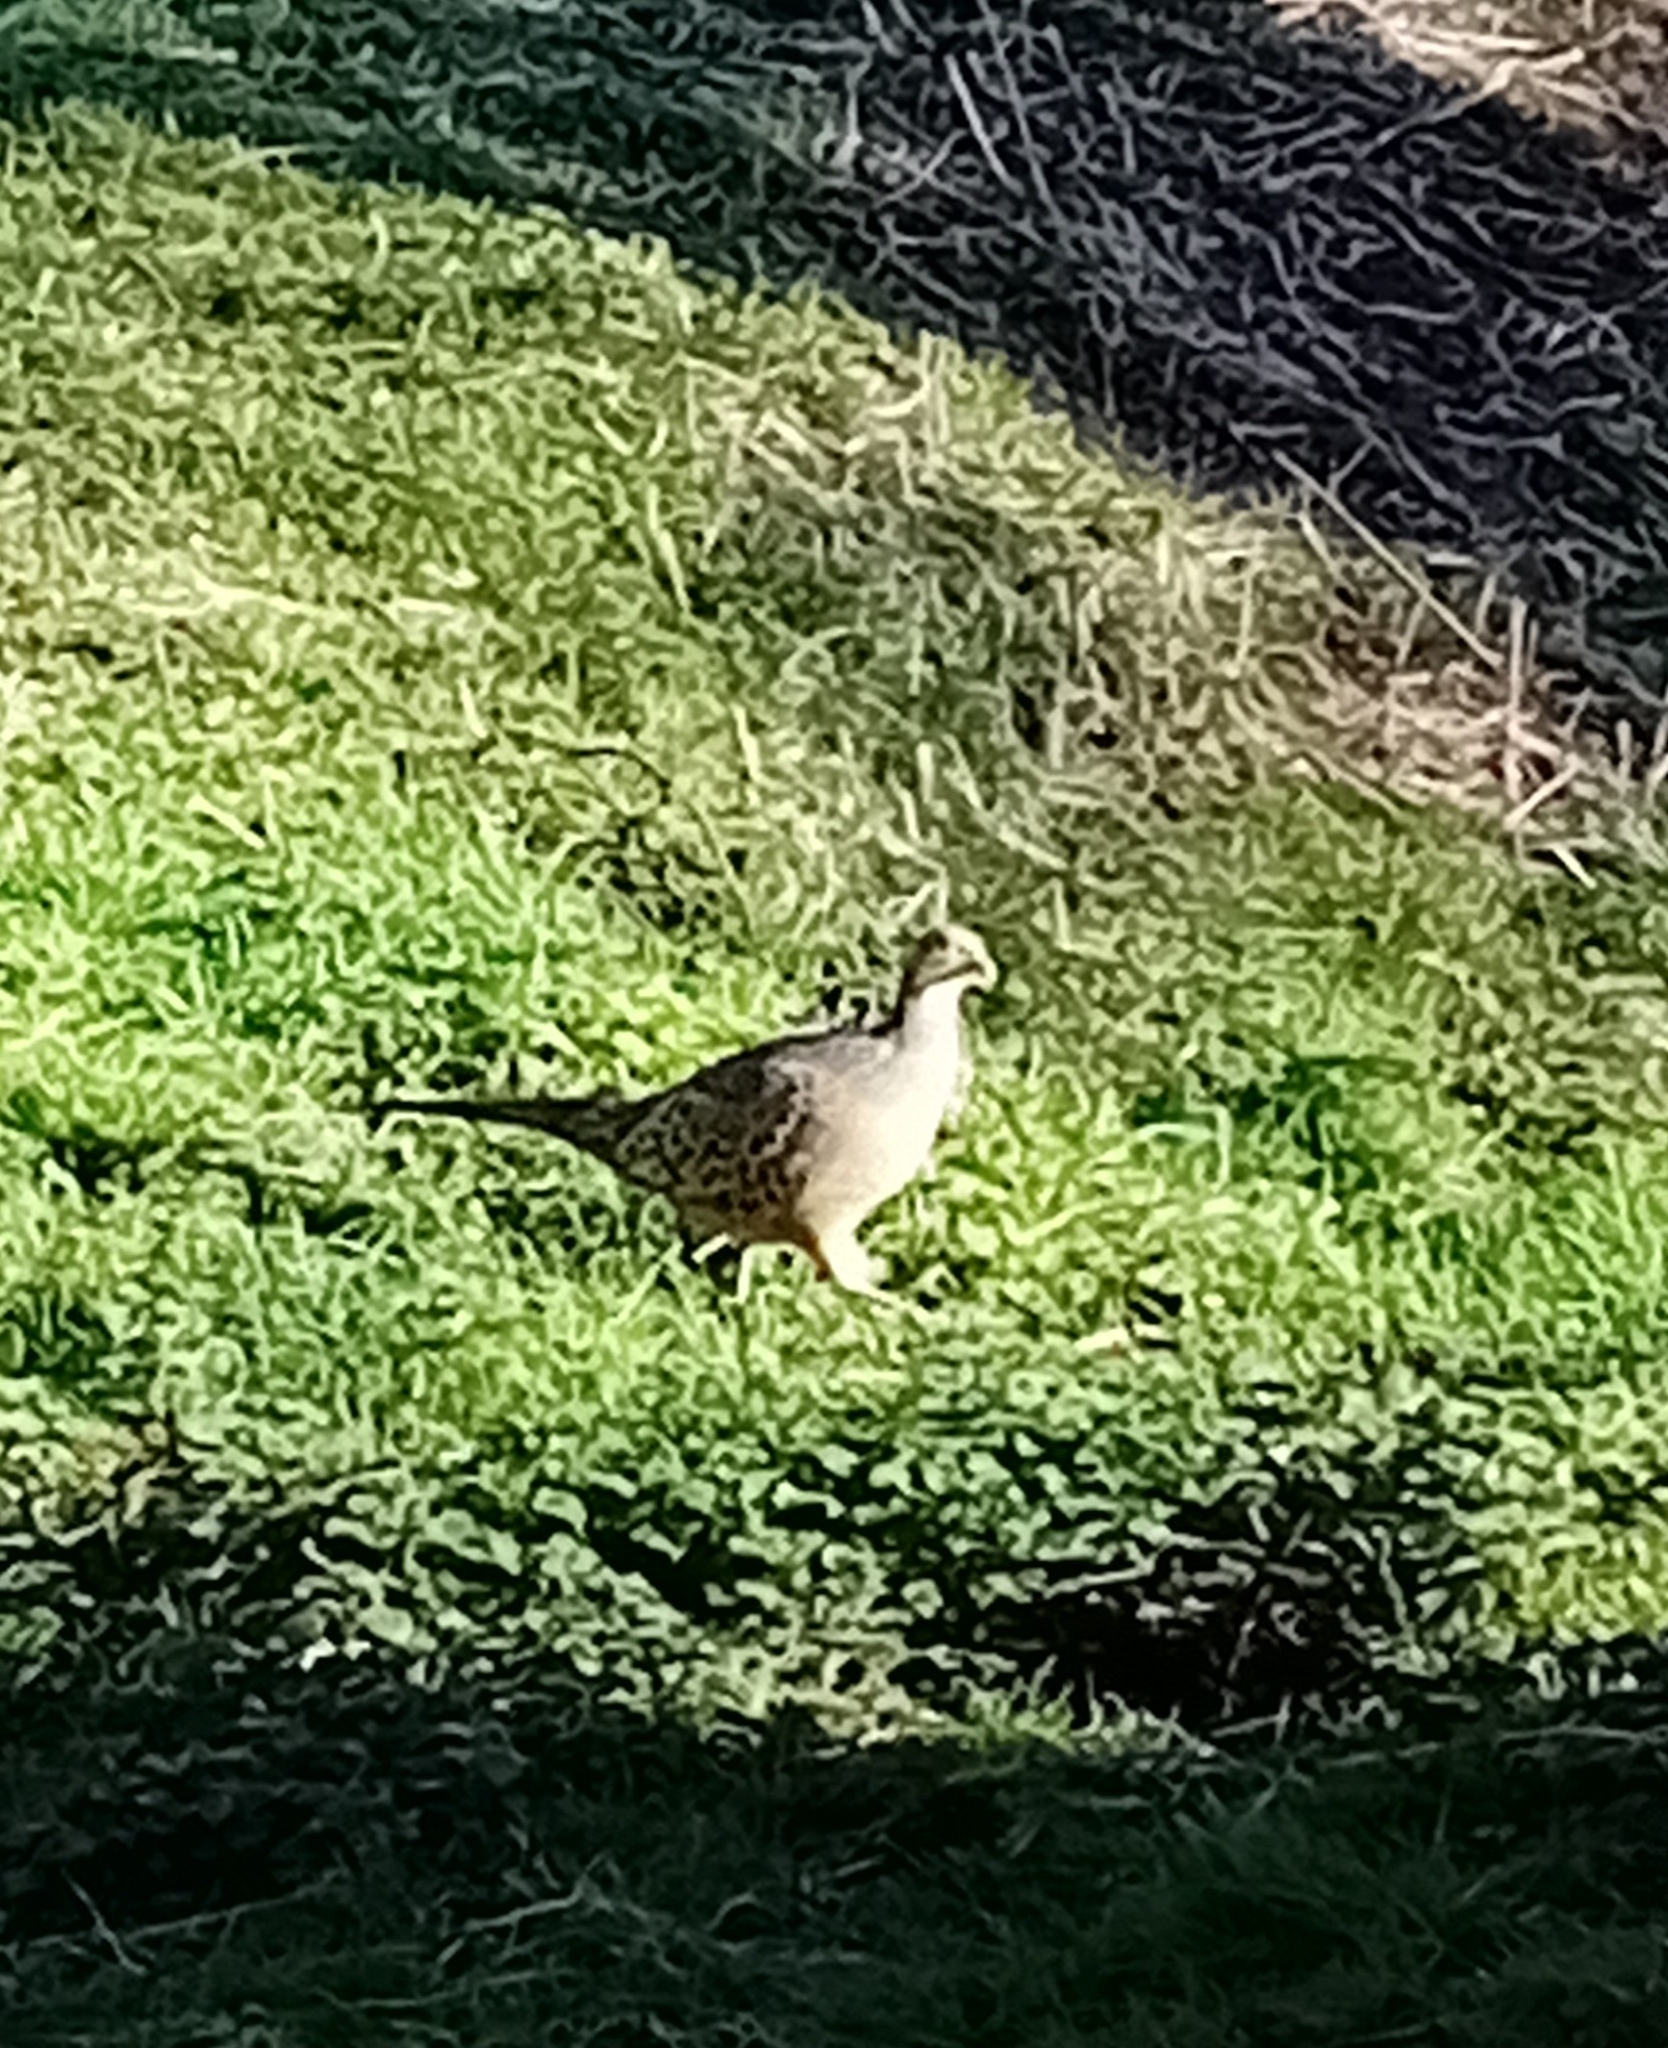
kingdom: Animalia
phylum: Chordata
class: Aves
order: Galliformes
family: Phasianidae
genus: Phasianus
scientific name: Phasianus colchicus
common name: Common pheasant
